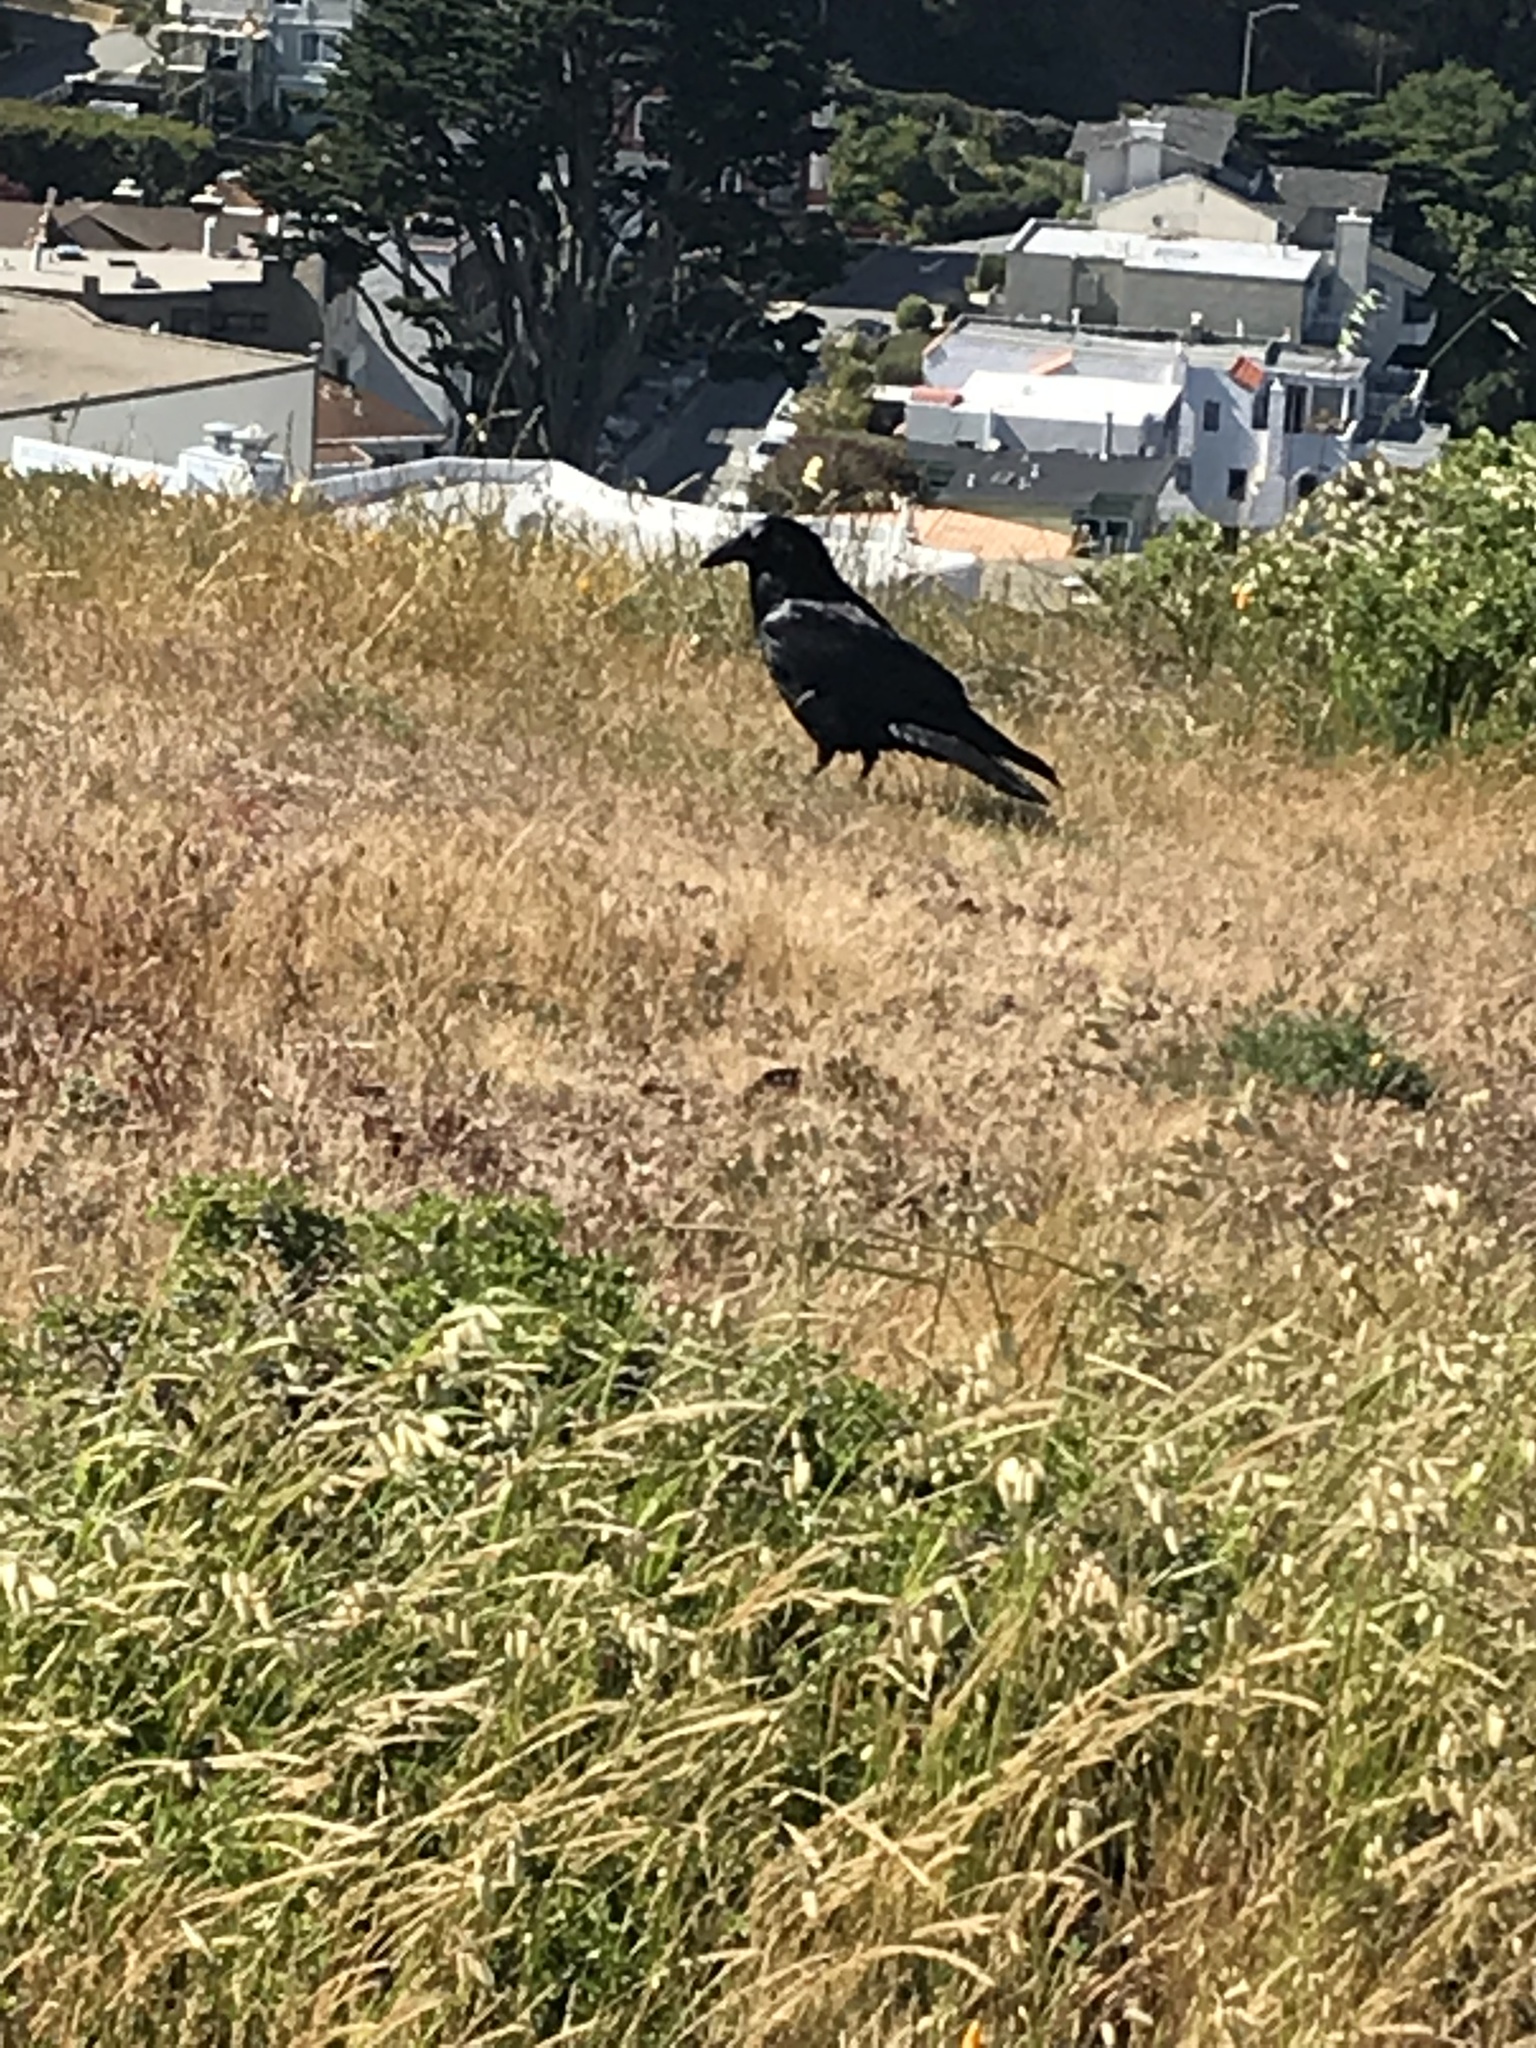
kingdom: Animalia
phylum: Chordata
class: Aves
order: Passeriformes
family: Corvidae
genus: Corvus
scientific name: Corvus corax
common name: Common raven
